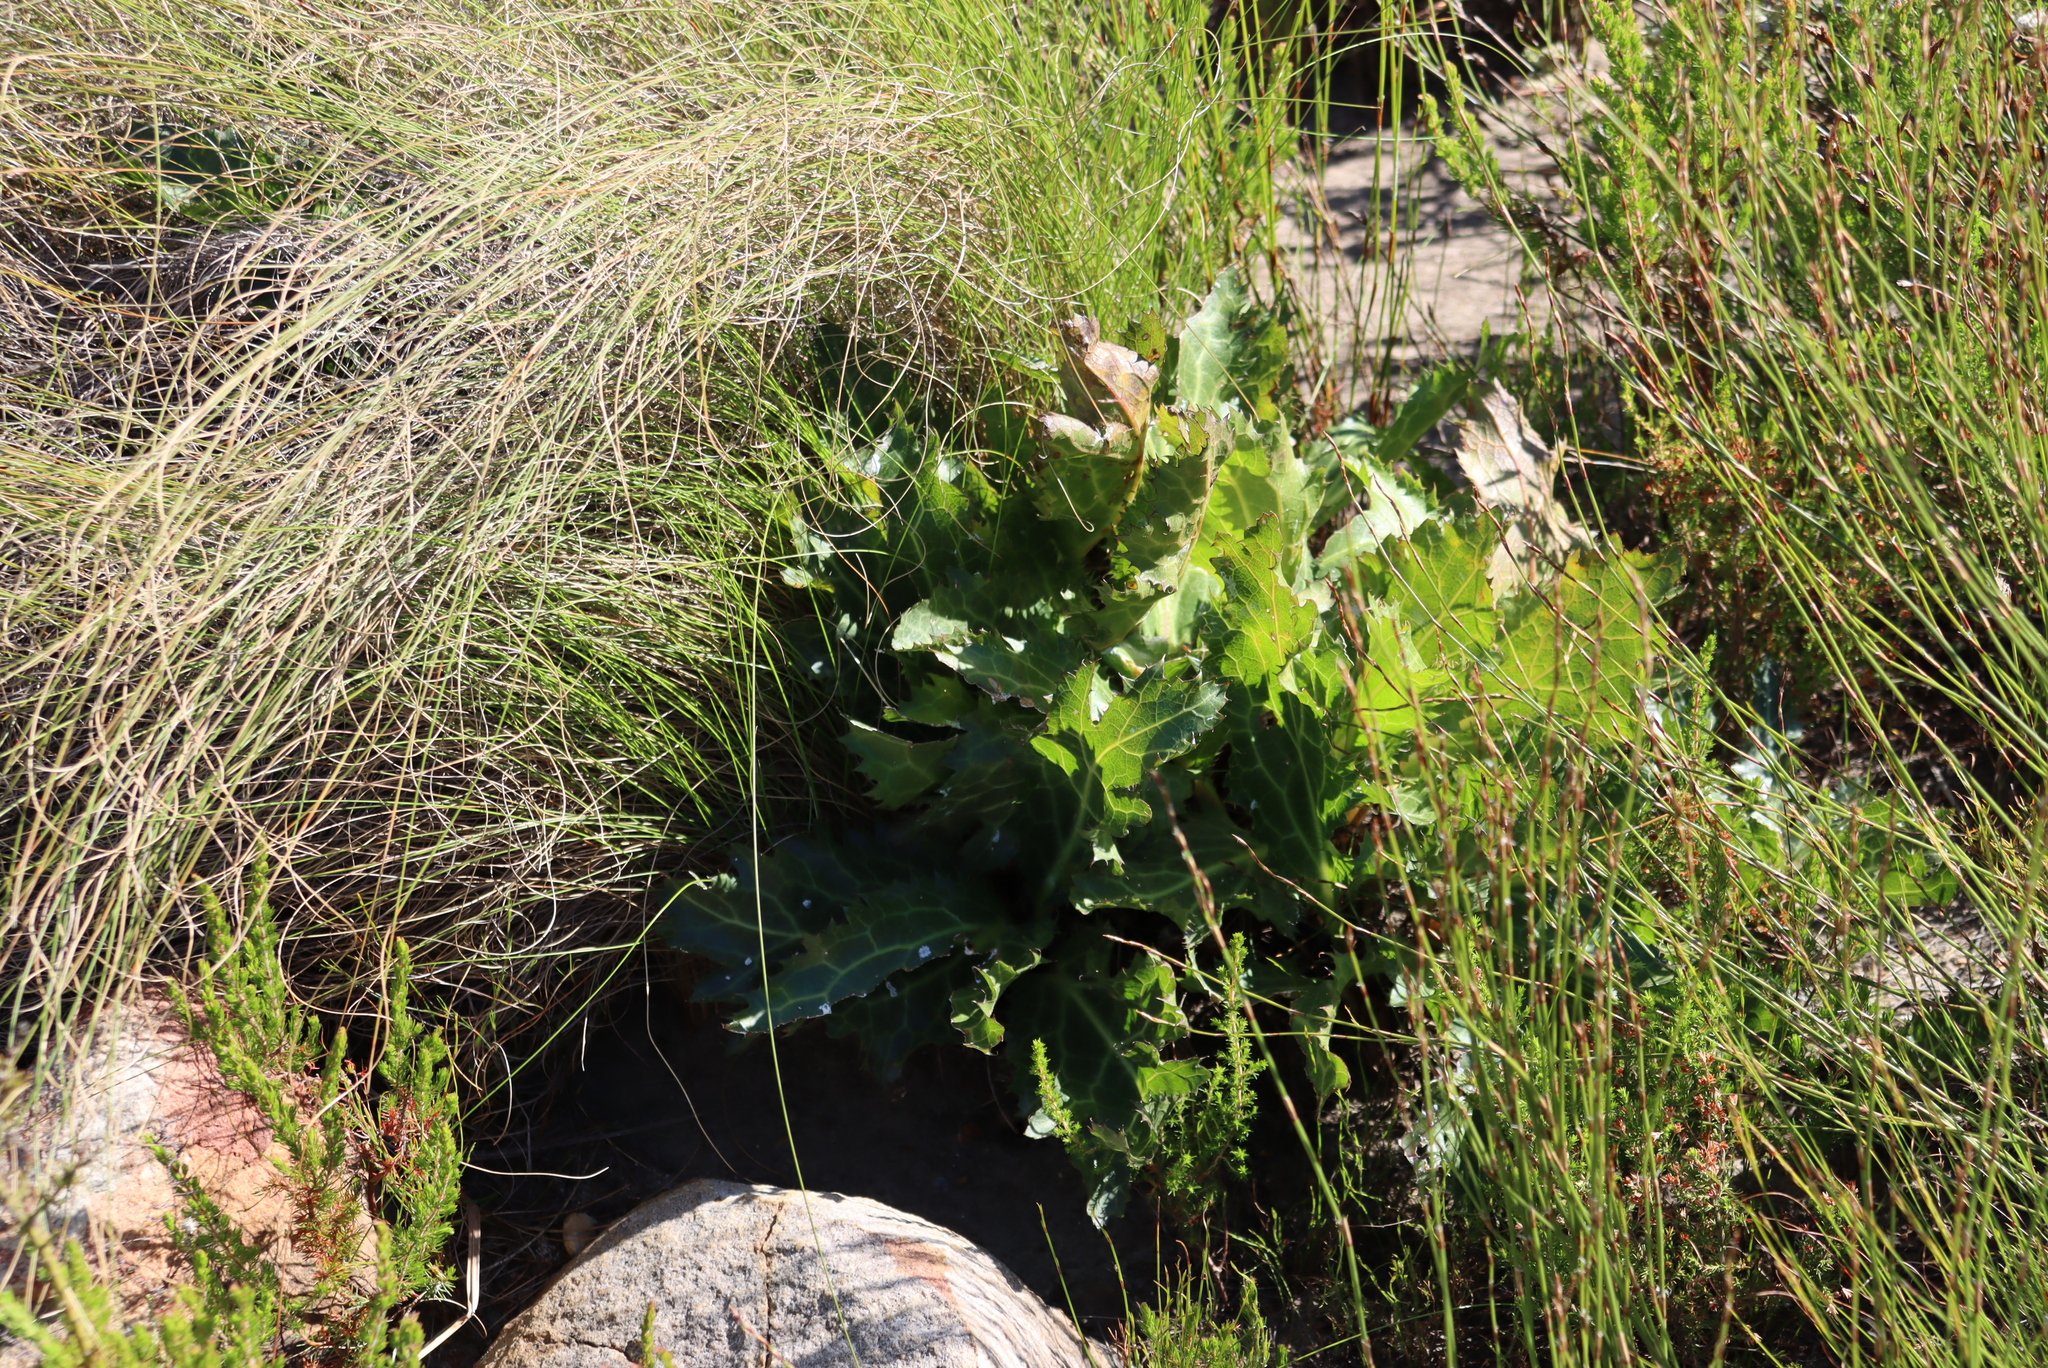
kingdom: Plantae
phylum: Tracheophyta
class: Magnoliopsida
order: Apiales
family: Apiaceae
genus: Lichtensteinia
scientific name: Lichtensteinia lacera
